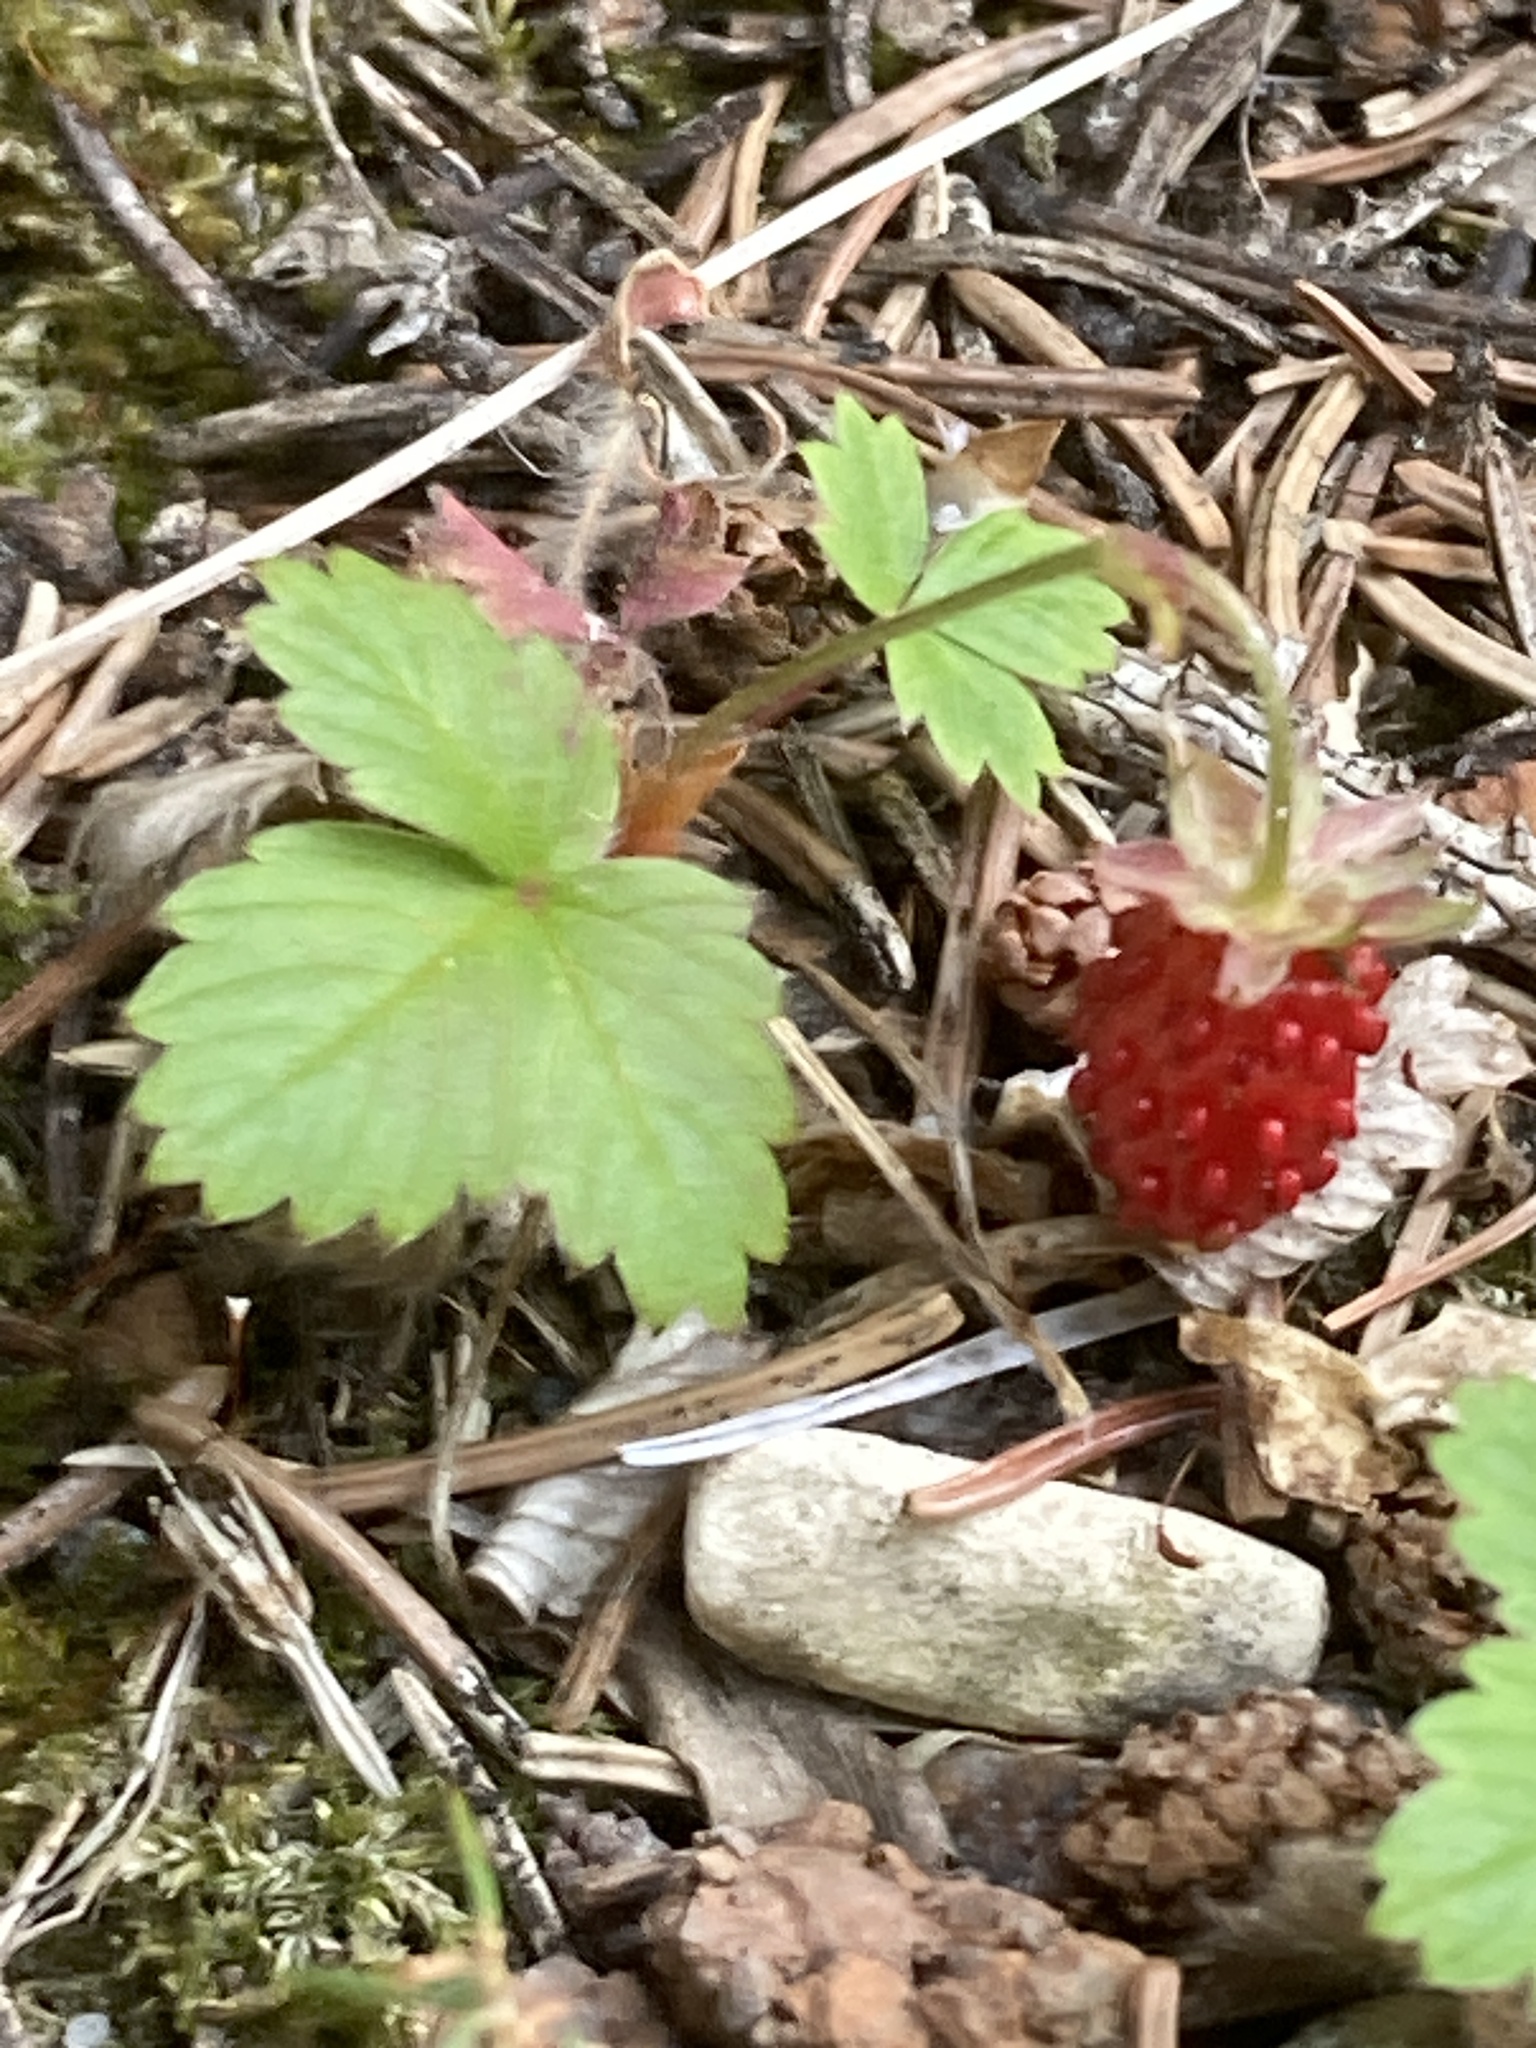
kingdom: Plantae
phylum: Tracheophyta
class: Magnoliopsida
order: Rosales
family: Rosaceae
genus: Fragaria
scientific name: Fragaria vesca
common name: Wild strawberry
